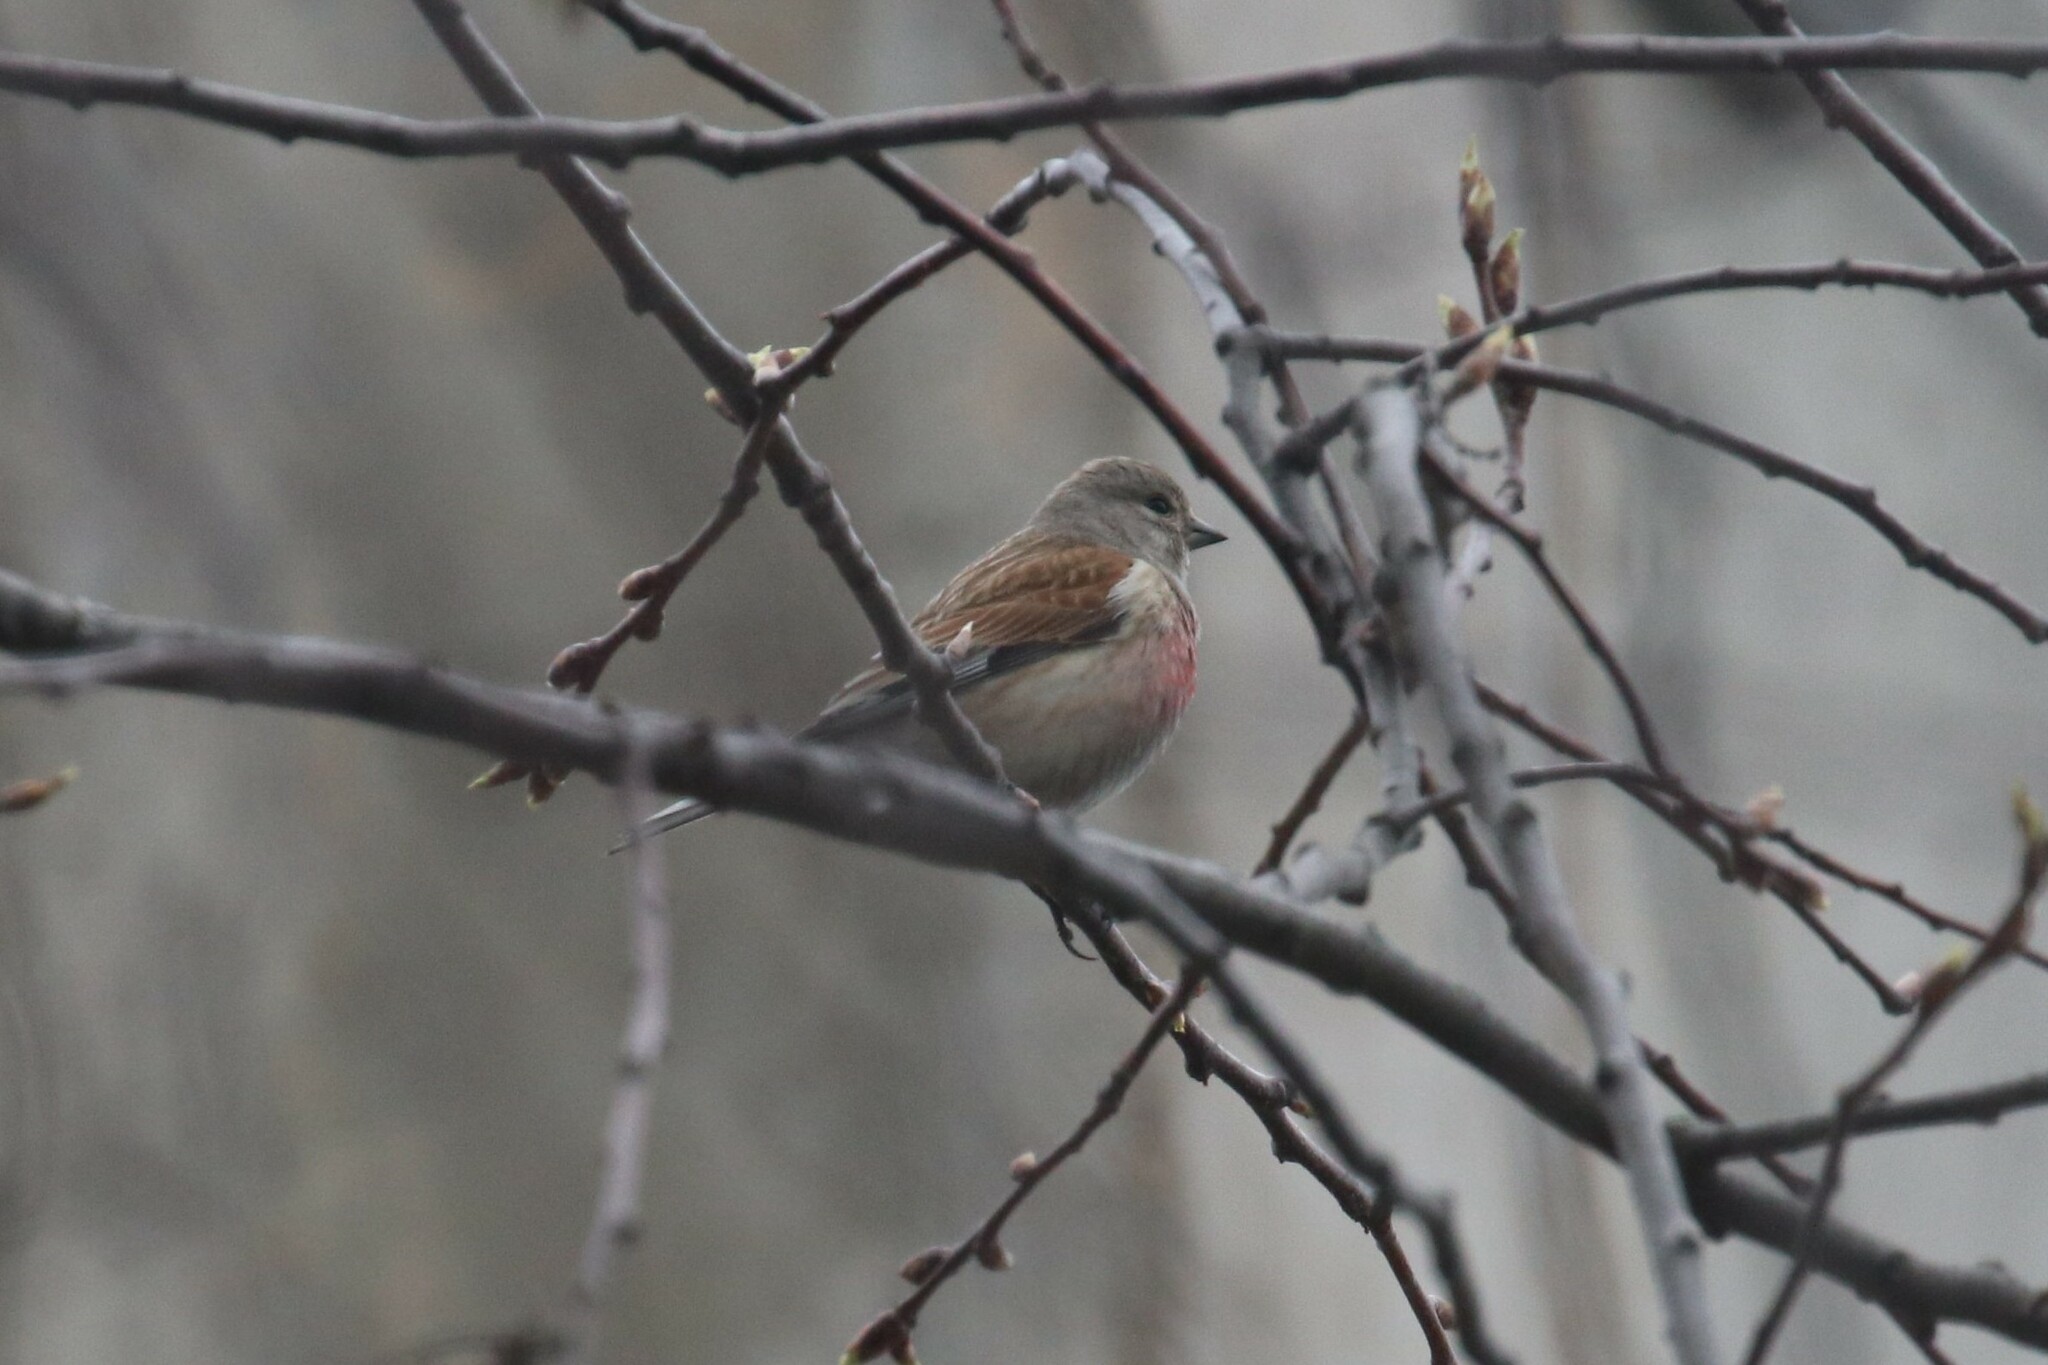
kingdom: Animalia
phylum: Chordata
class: Aves
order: Passeriformes
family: Fringillidae
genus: Linaria
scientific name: Linaria cannabina
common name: Common linnet
